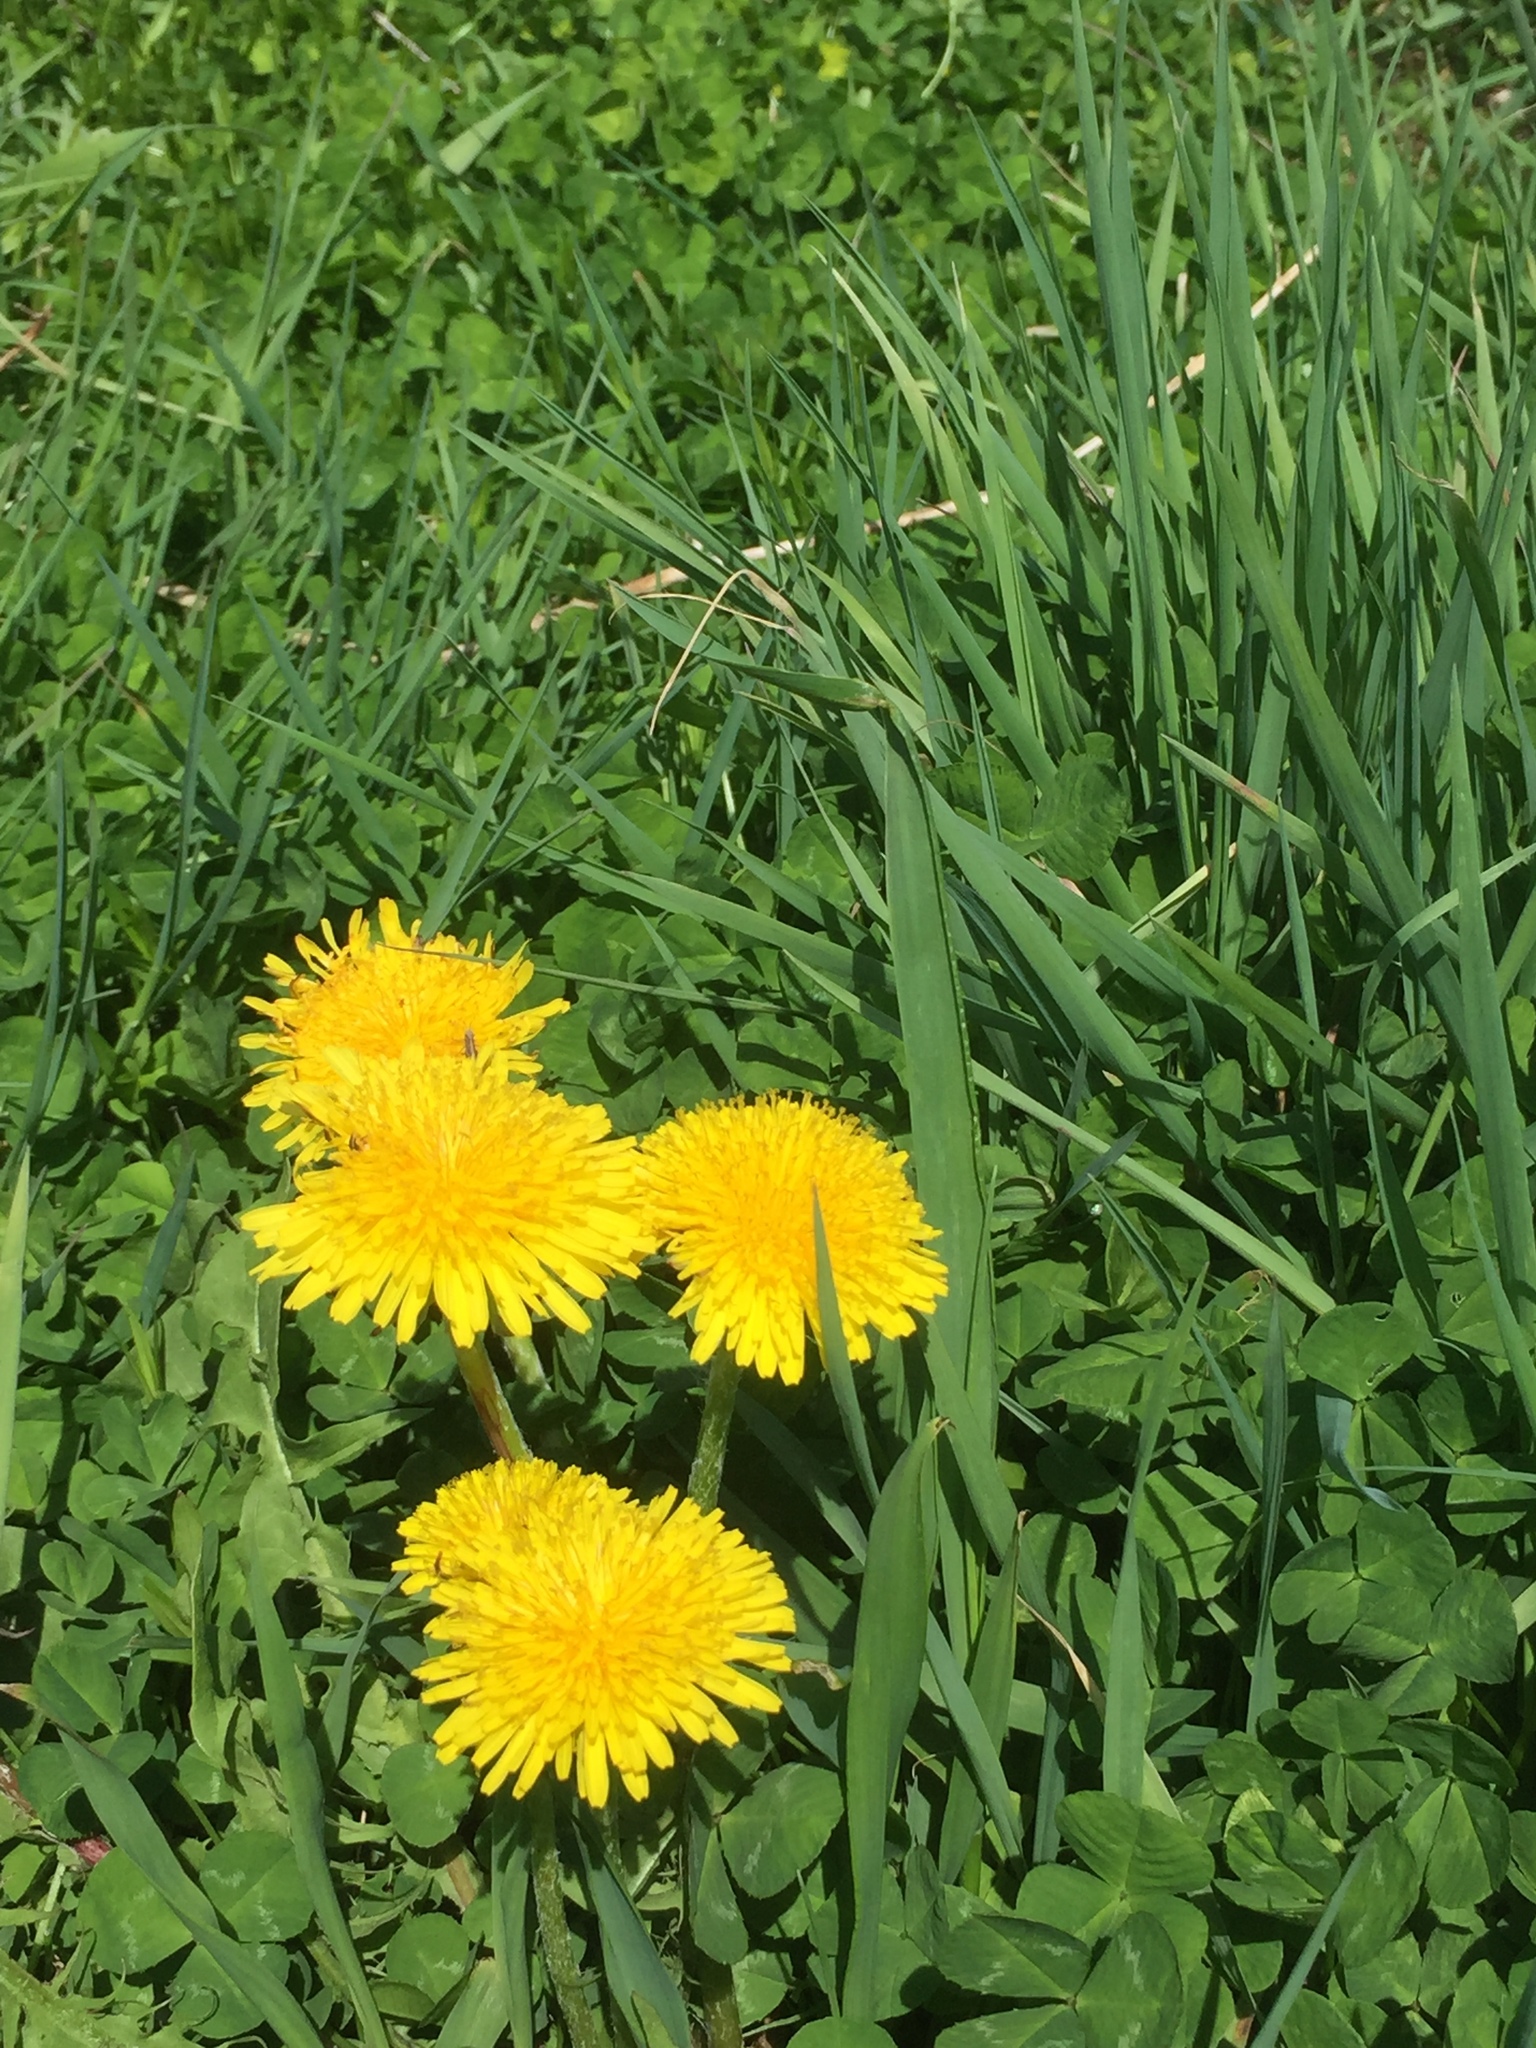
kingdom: Plantae
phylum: Tracheophyta
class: Magnoliopsida
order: Asterales
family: Asteraceae
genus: Taraxacum
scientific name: Taraxacum officinale
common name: Common dandelion
